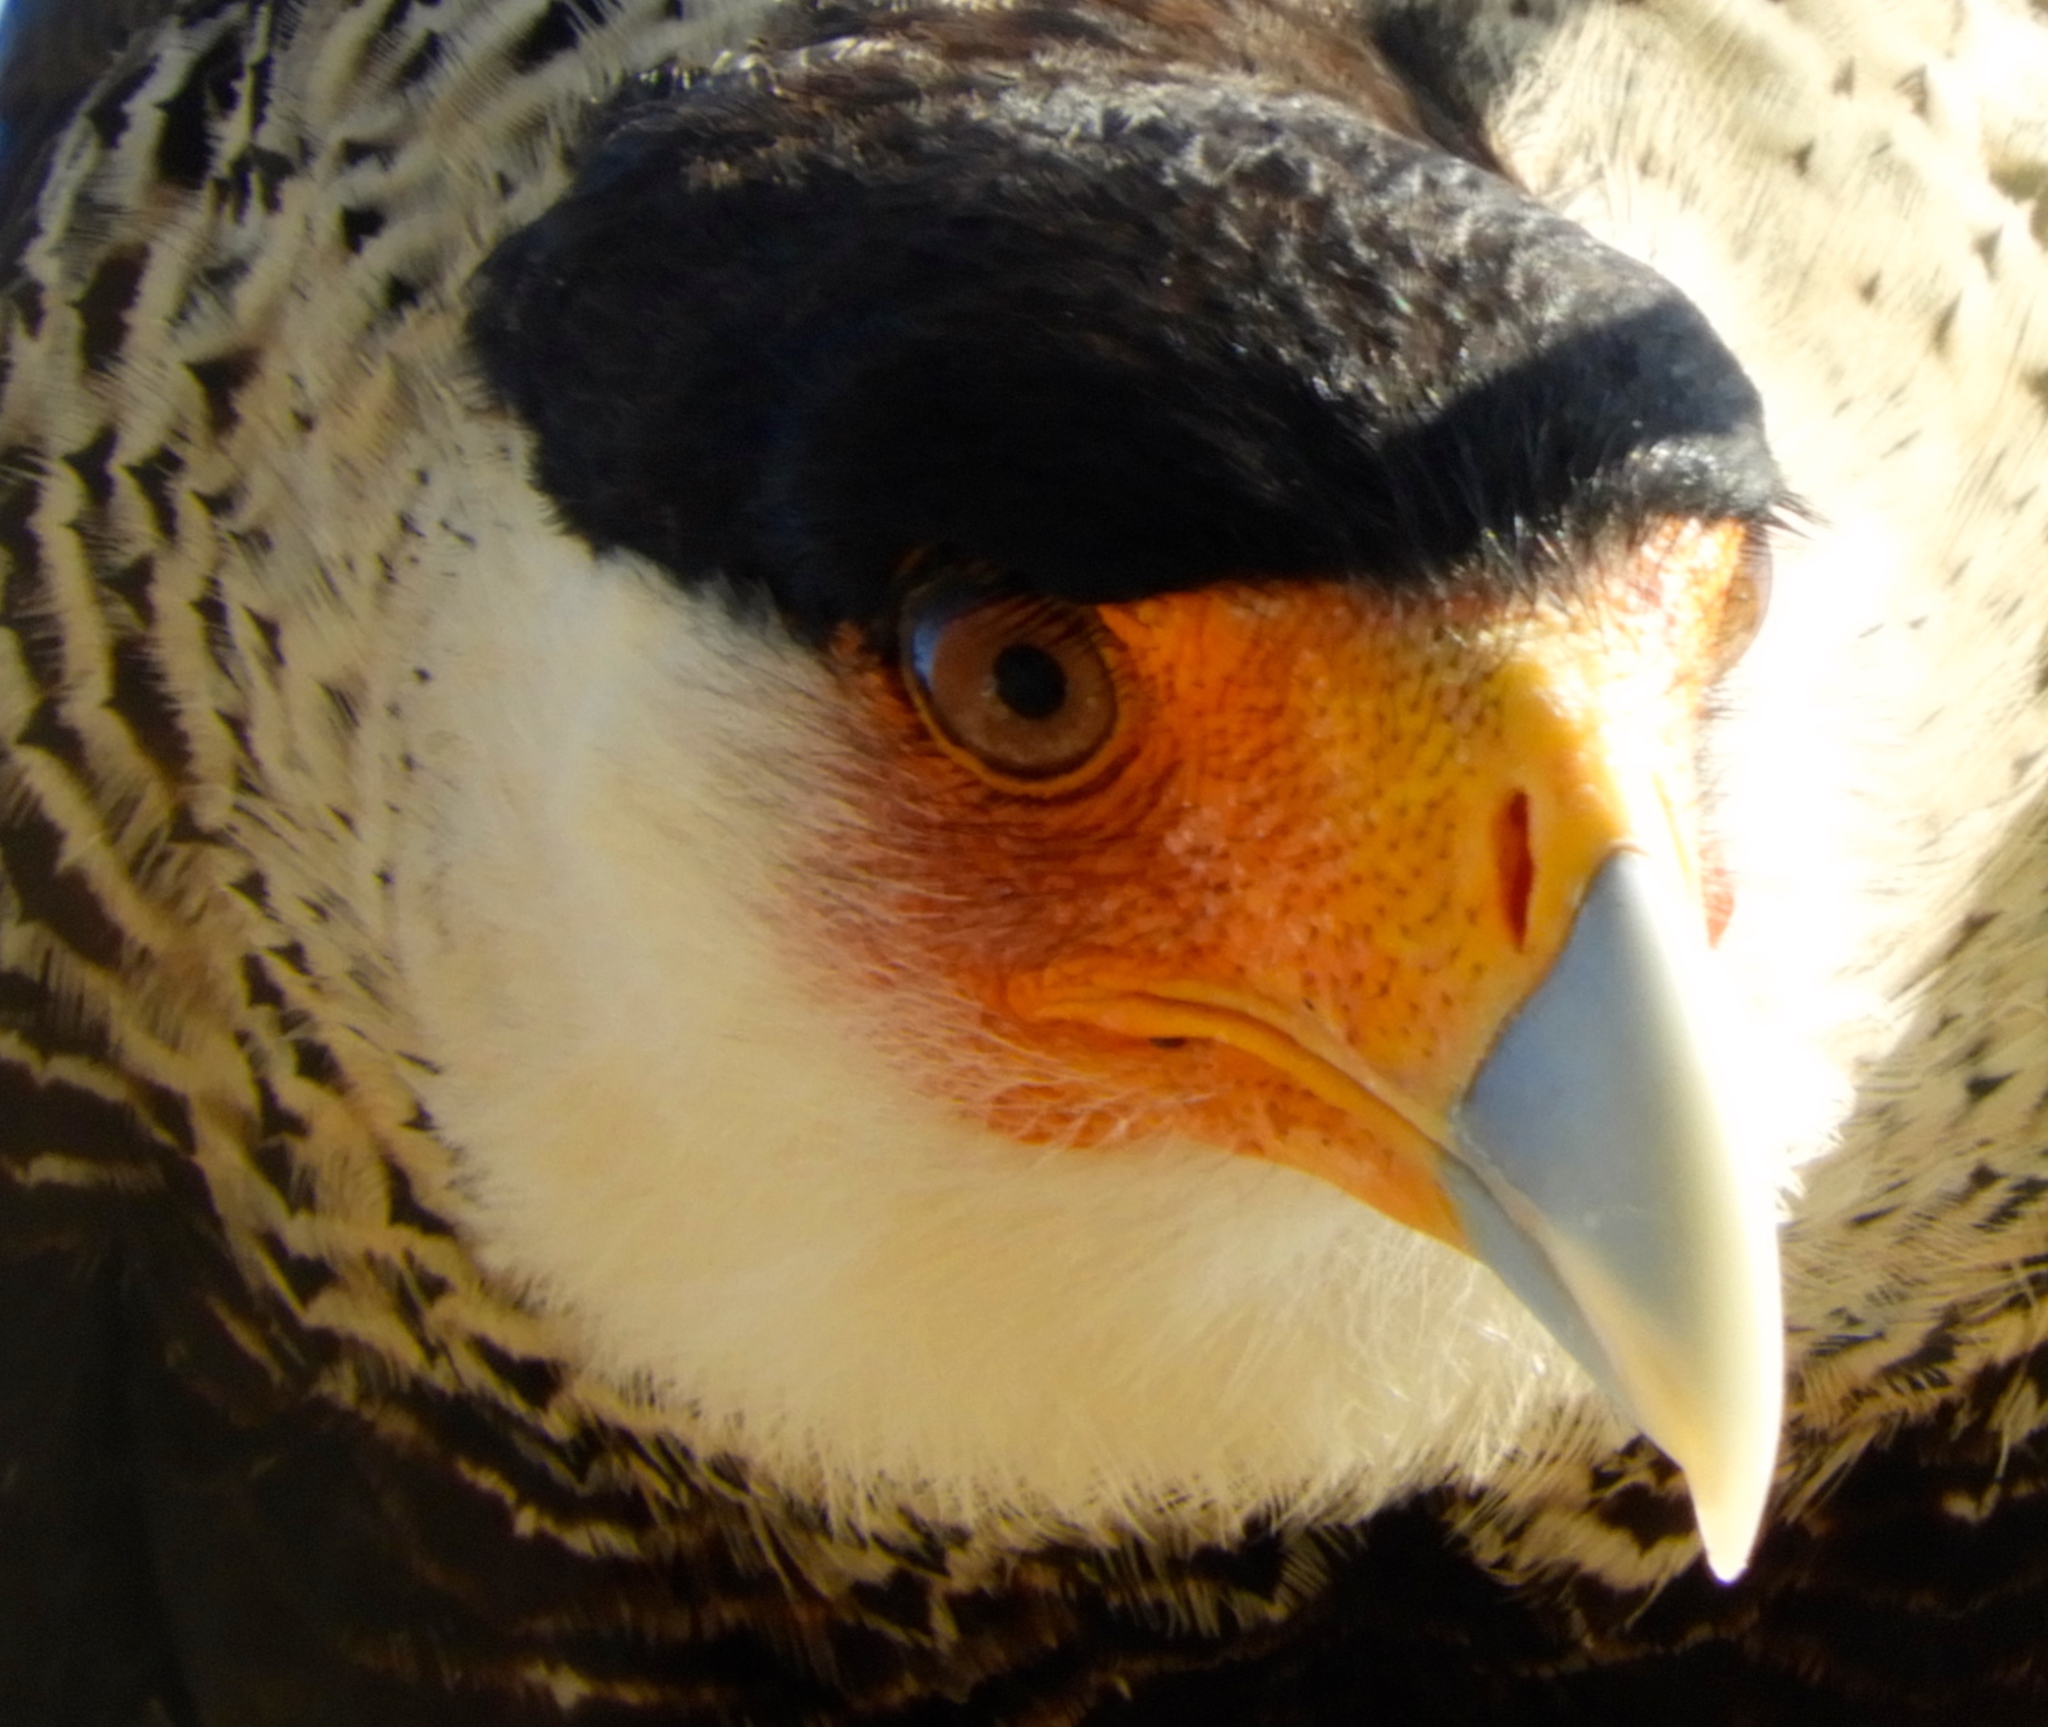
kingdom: Animalia
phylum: Chordata
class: Aves
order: Falconiformes
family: Falconidae
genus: Caracara
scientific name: Caracara plancus
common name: Southern caracara
